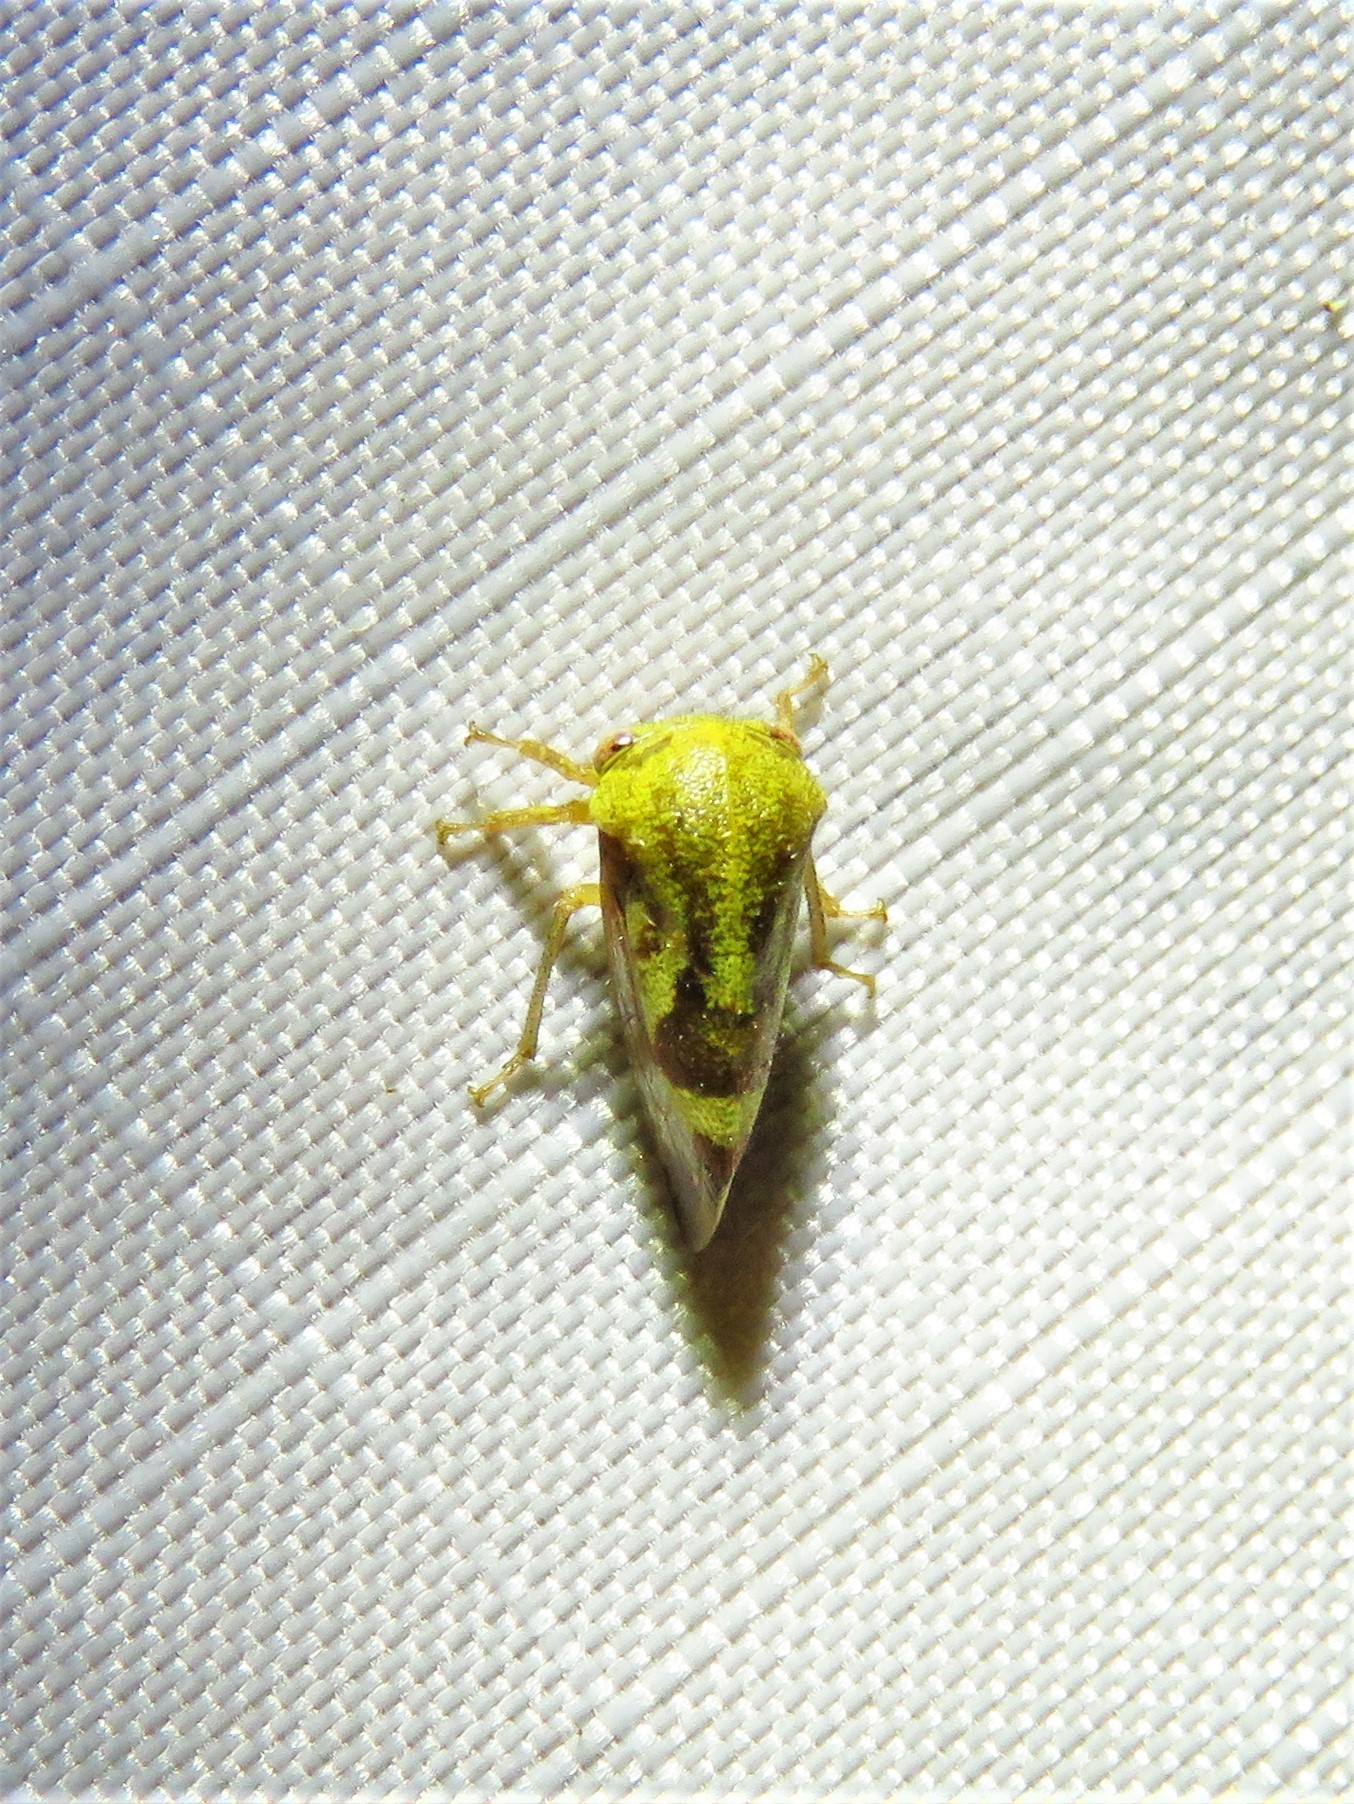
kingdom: Animalia
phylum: Arthropoda
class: Insecta
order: Hemiptera
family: Membracidae
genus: Ophiderma
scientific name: Ophiderma evelyna
